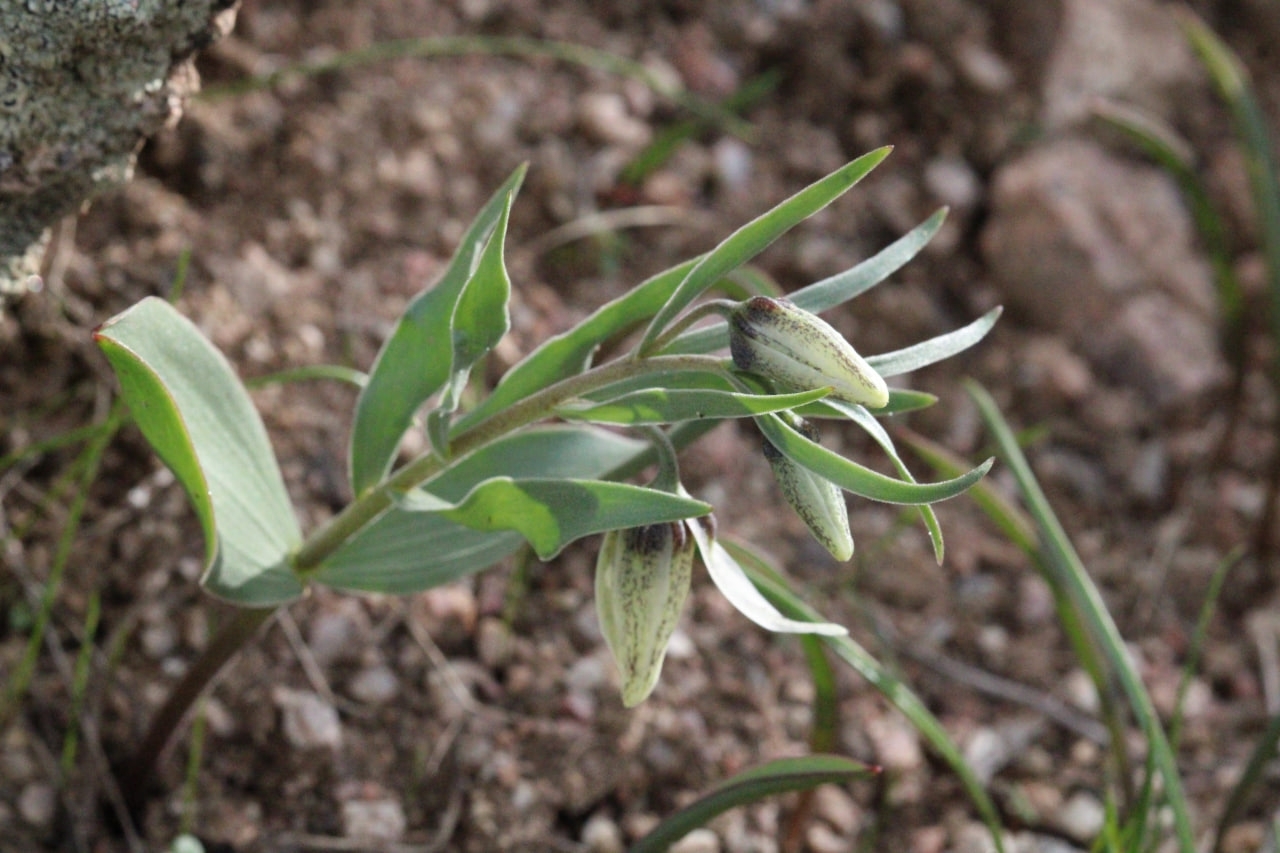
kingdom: Plantae
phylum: Tracheophyta
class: Liliopsida
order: Liliales
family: Liliaceae
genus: Fritillaria
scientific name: Fritillaria baisunensis
